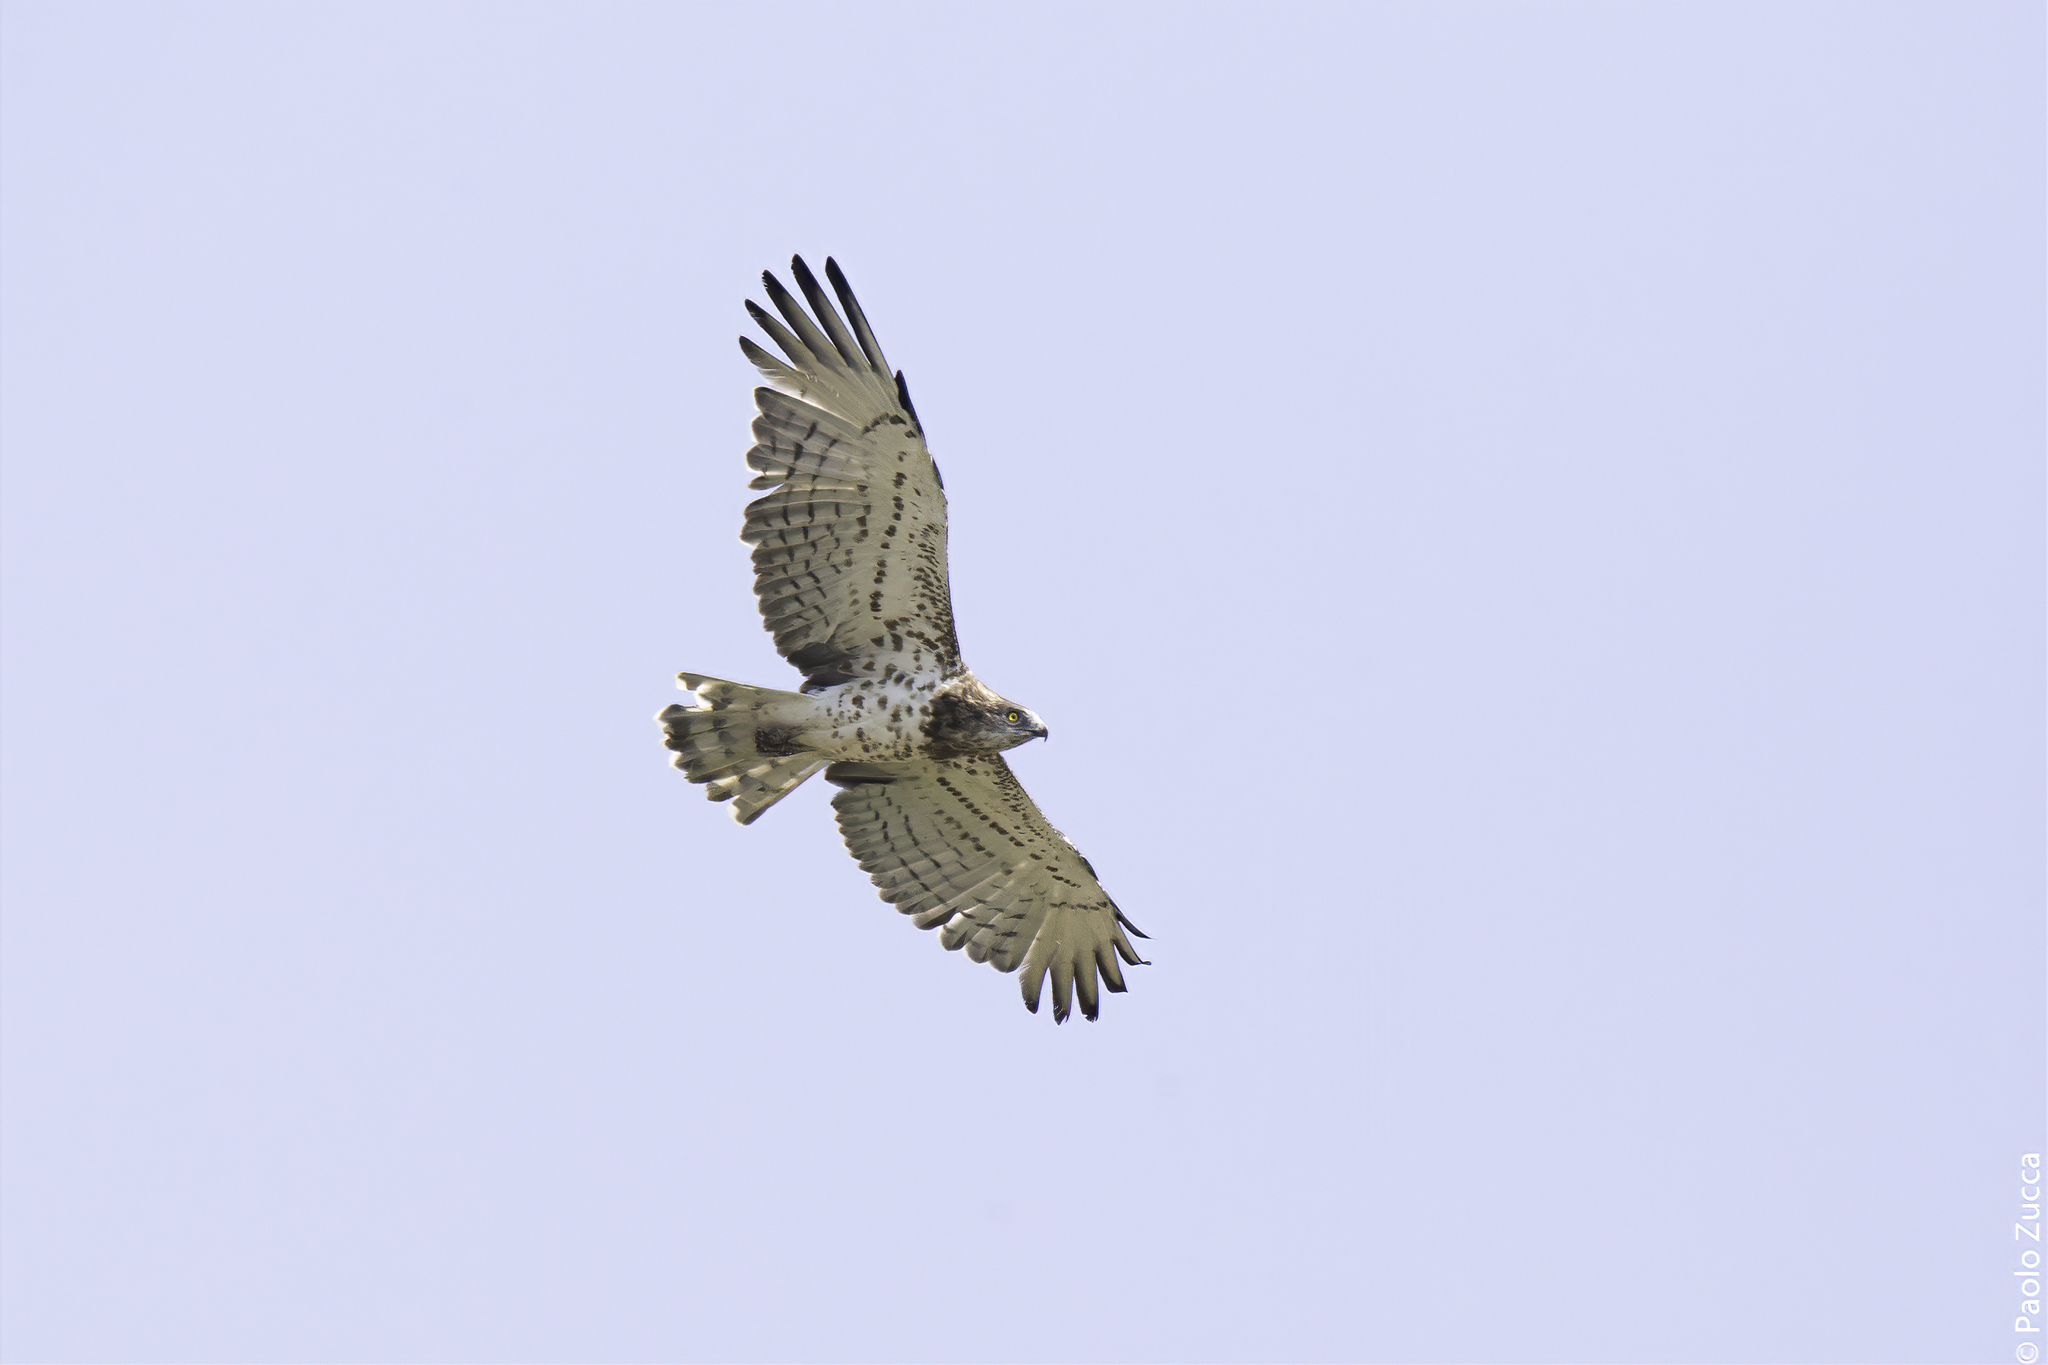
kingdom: Animalia
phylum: Chordata
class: Aves
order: Accipitriformes
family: Accipitridae
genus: Circaetus
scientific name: Circaetus gallicus
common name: Short-toed snake eagle
